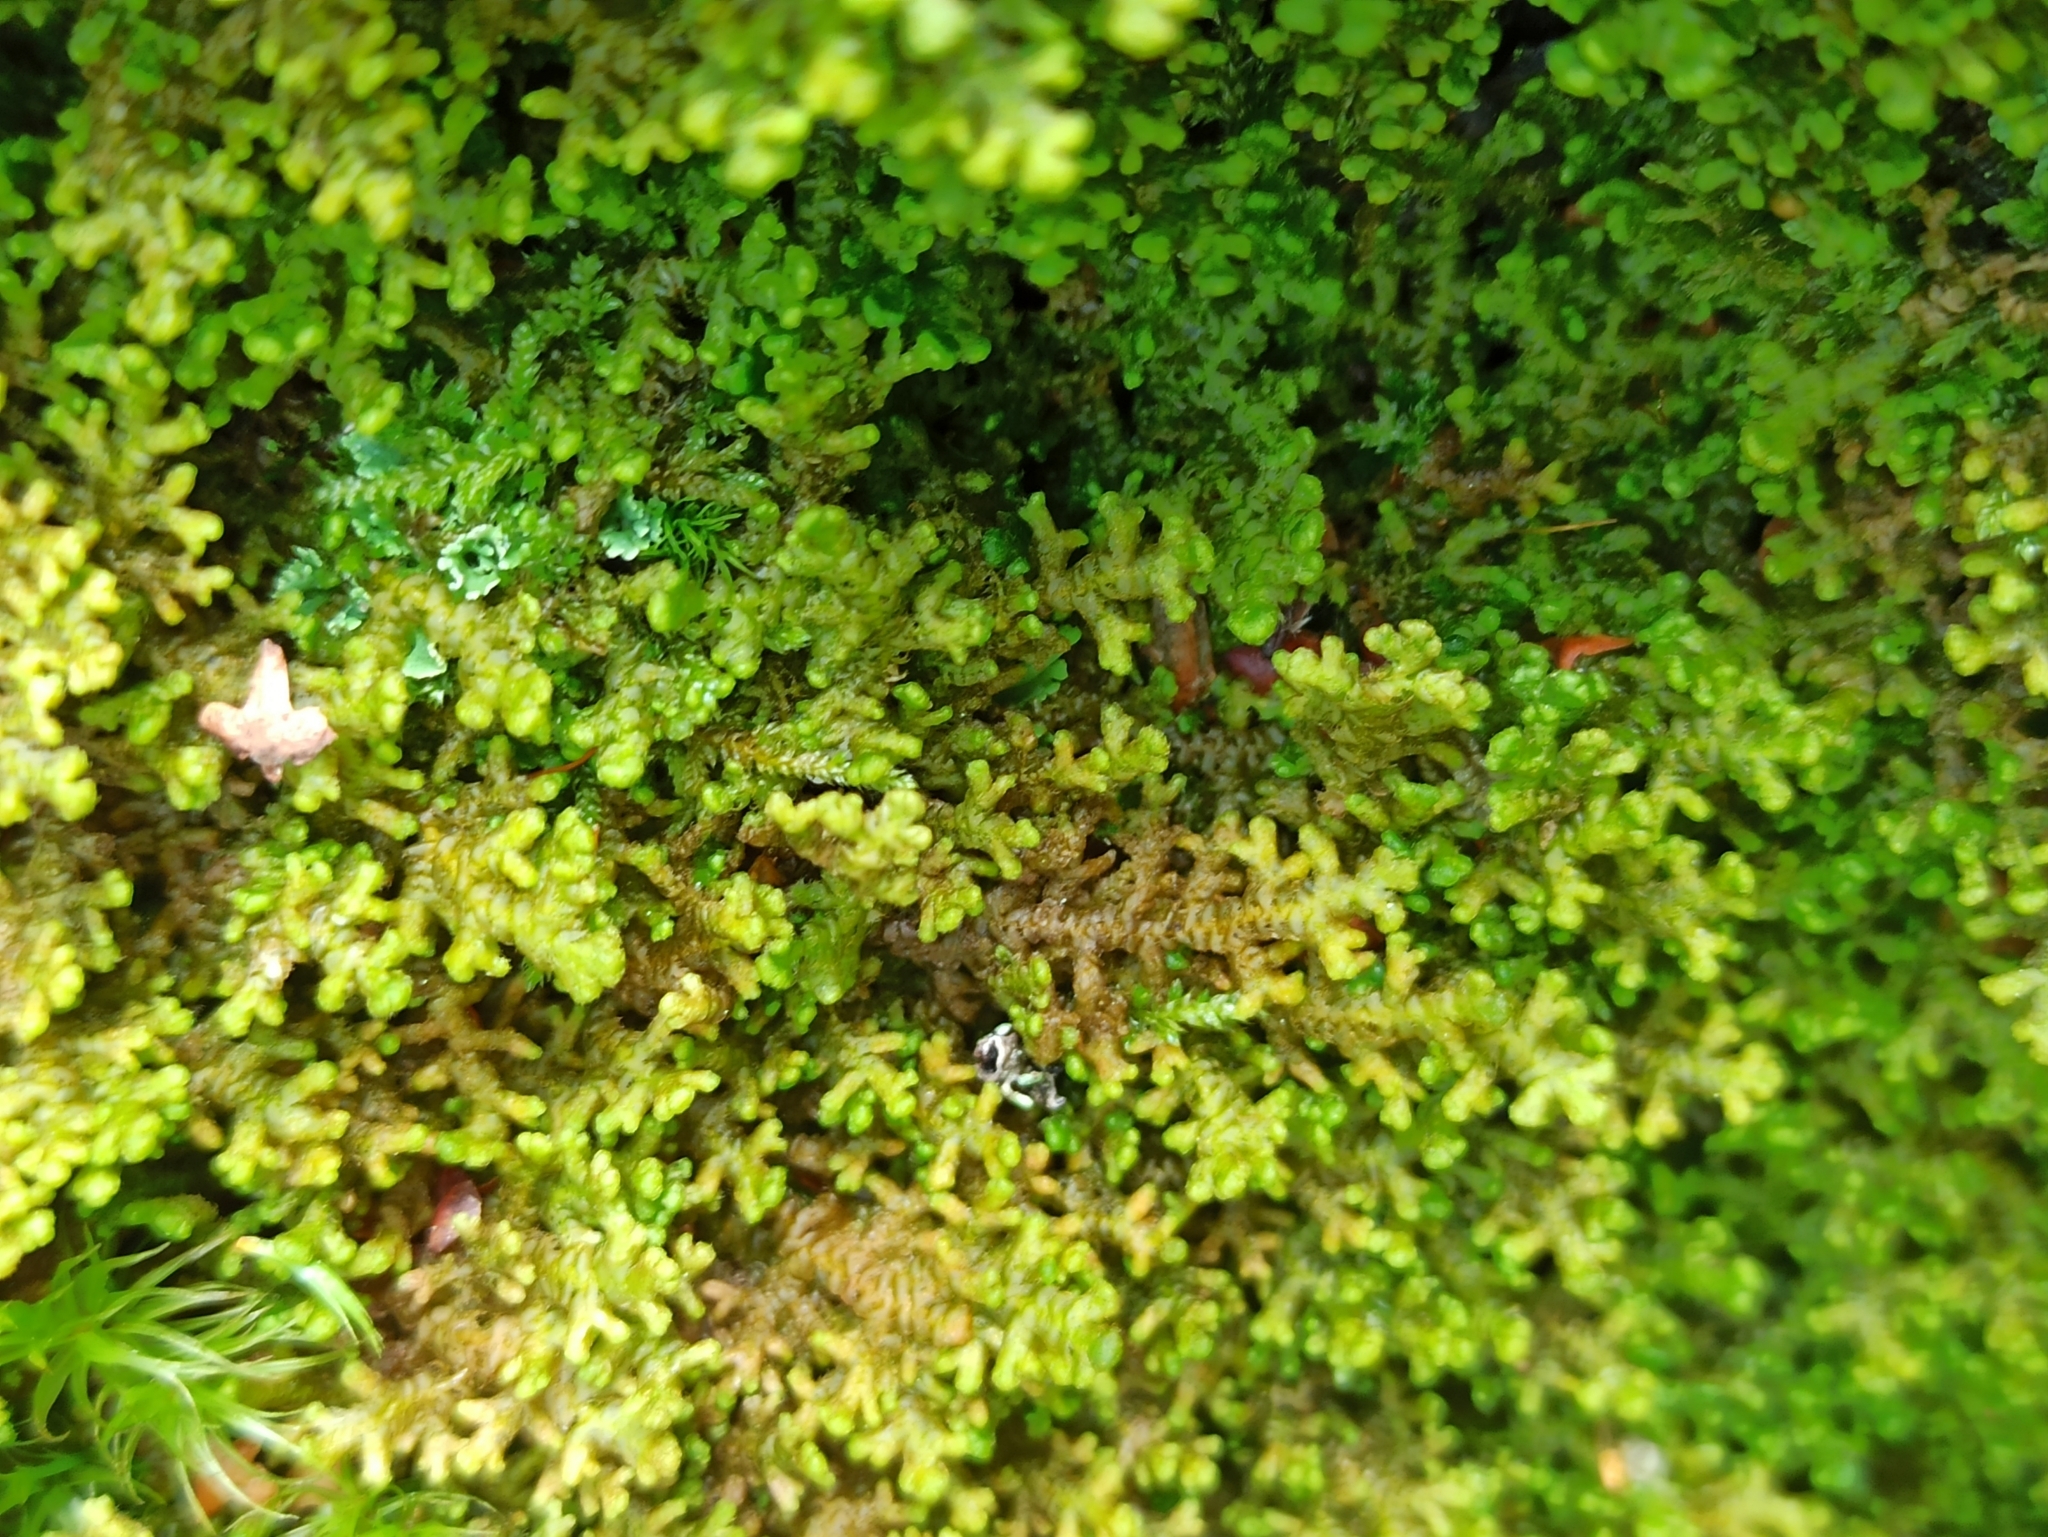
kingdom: Plantae
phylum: Marchantiophyta
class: Jungermanniopsida
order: Ptilidiales
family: Ptilidiaceae
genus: Ptilidium
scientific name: Ptilidium ciliare
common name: Ciliate fringewort
